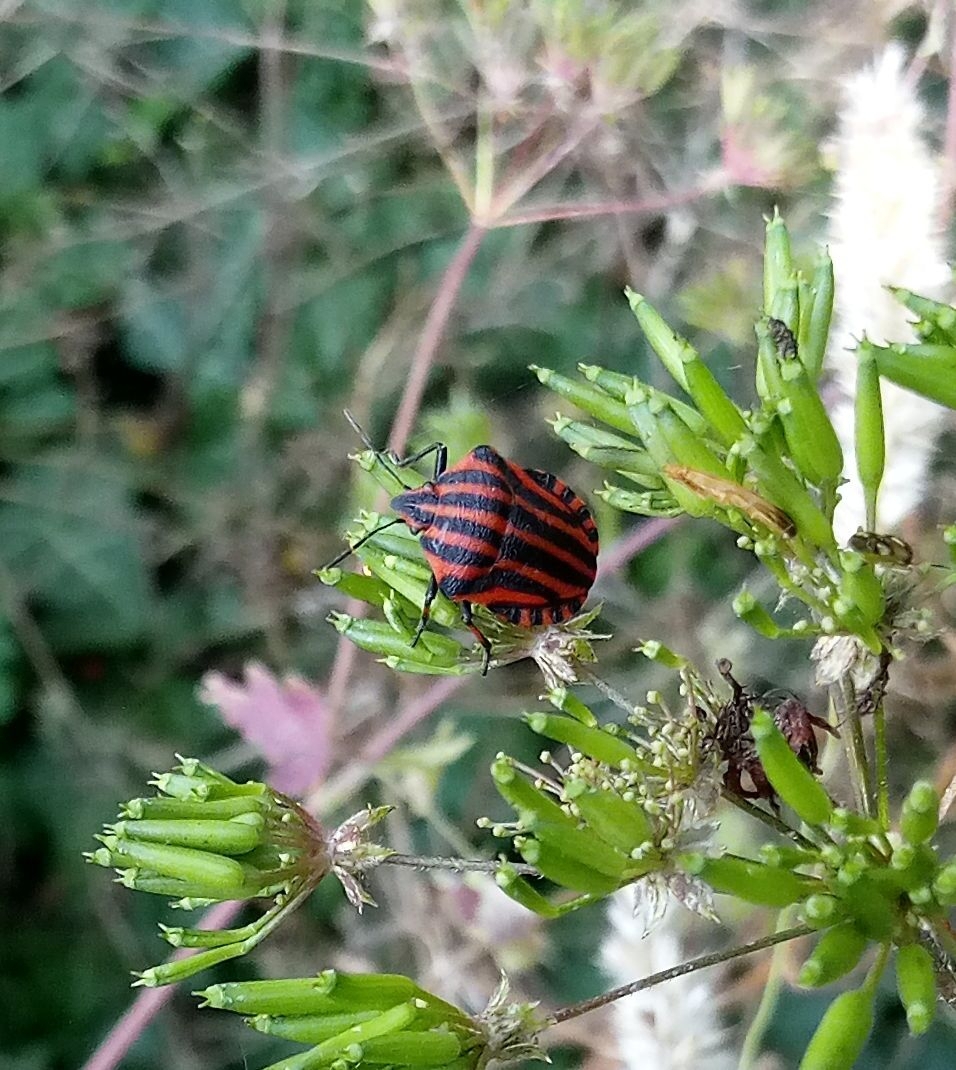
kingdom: Animalia
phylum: Arthropoda
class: Insecta
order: Hemiptera
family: Pentatomidae
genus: Graphosoma
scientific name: Graphosoma italicum
